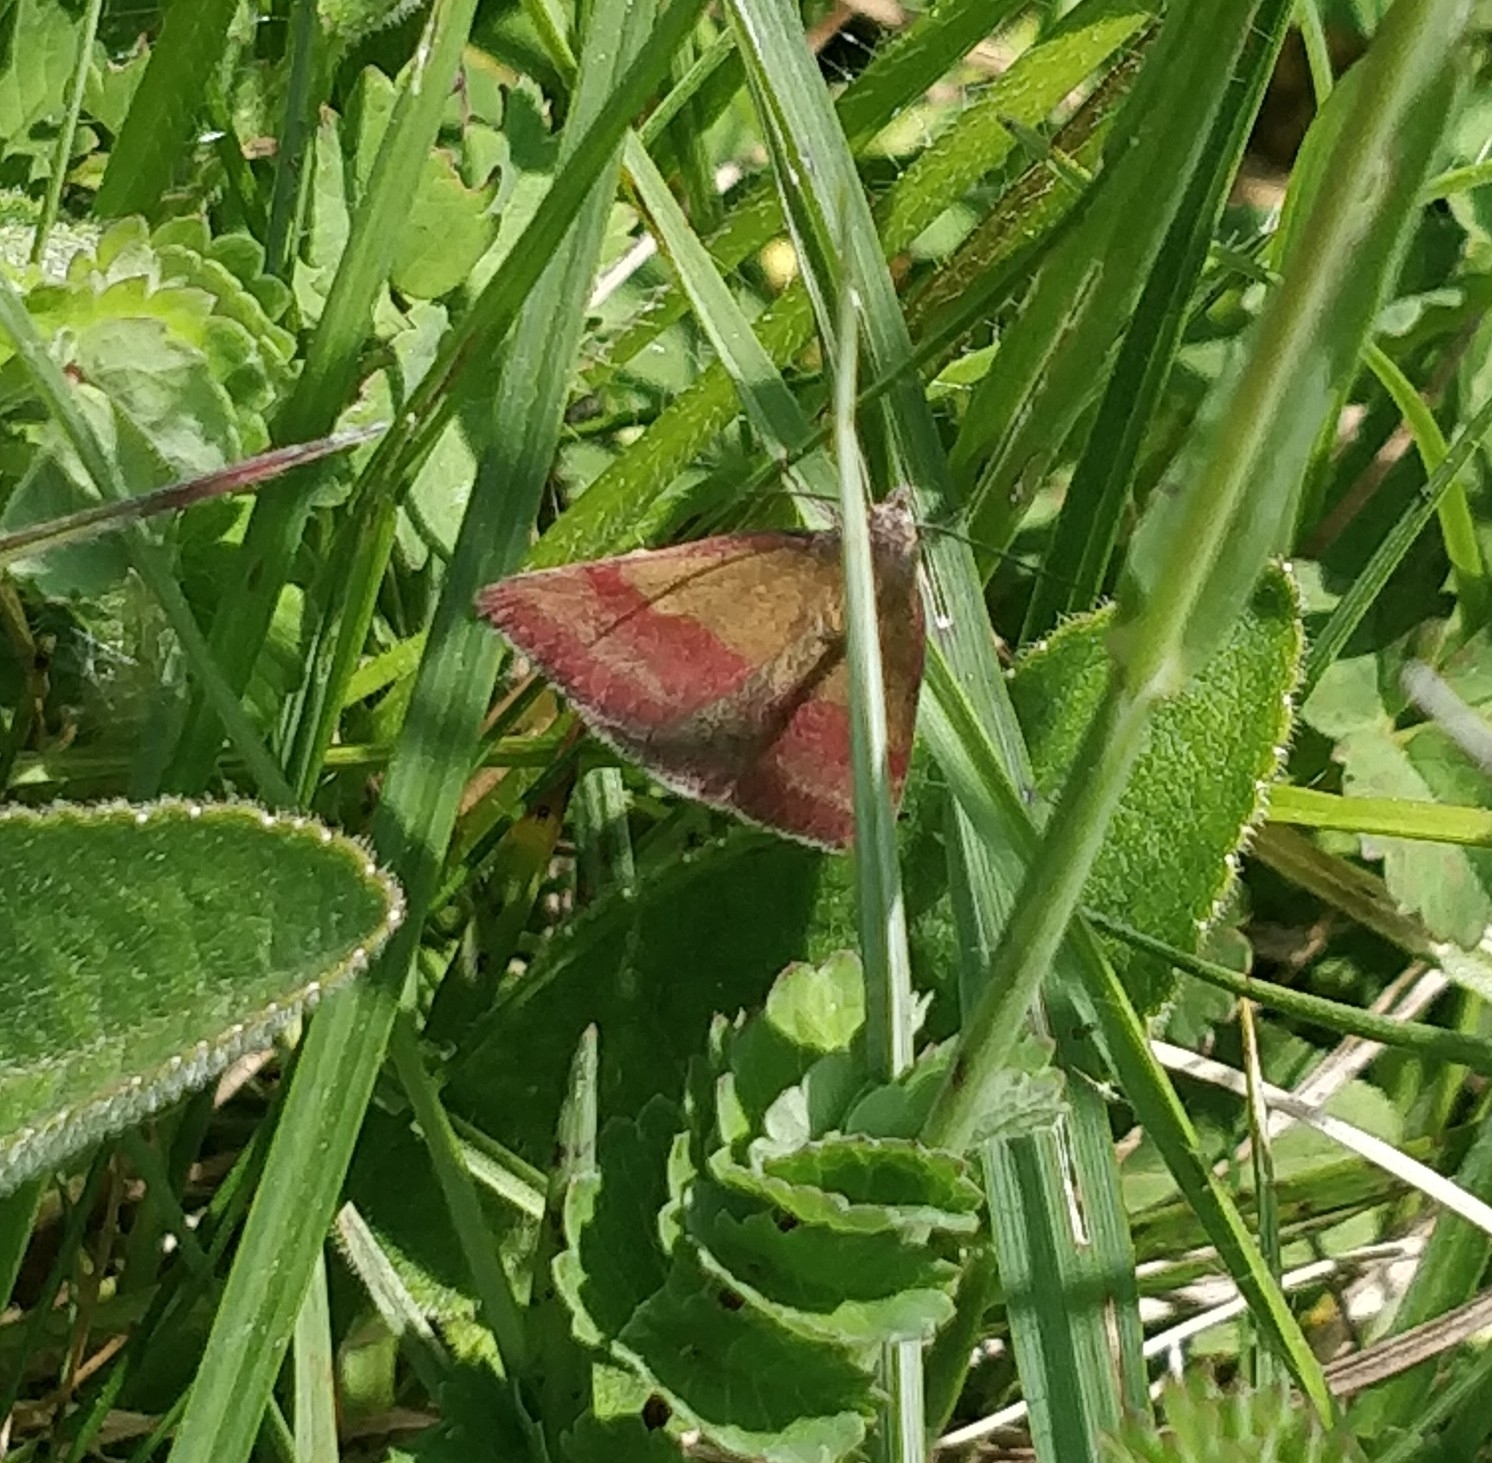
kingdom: Animalia
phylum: Arthropoda
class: Insecta
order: Lepidoptera
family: Erebidae
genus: Phytometra
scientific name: Phytometra viridaria
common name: Small purple-barred
